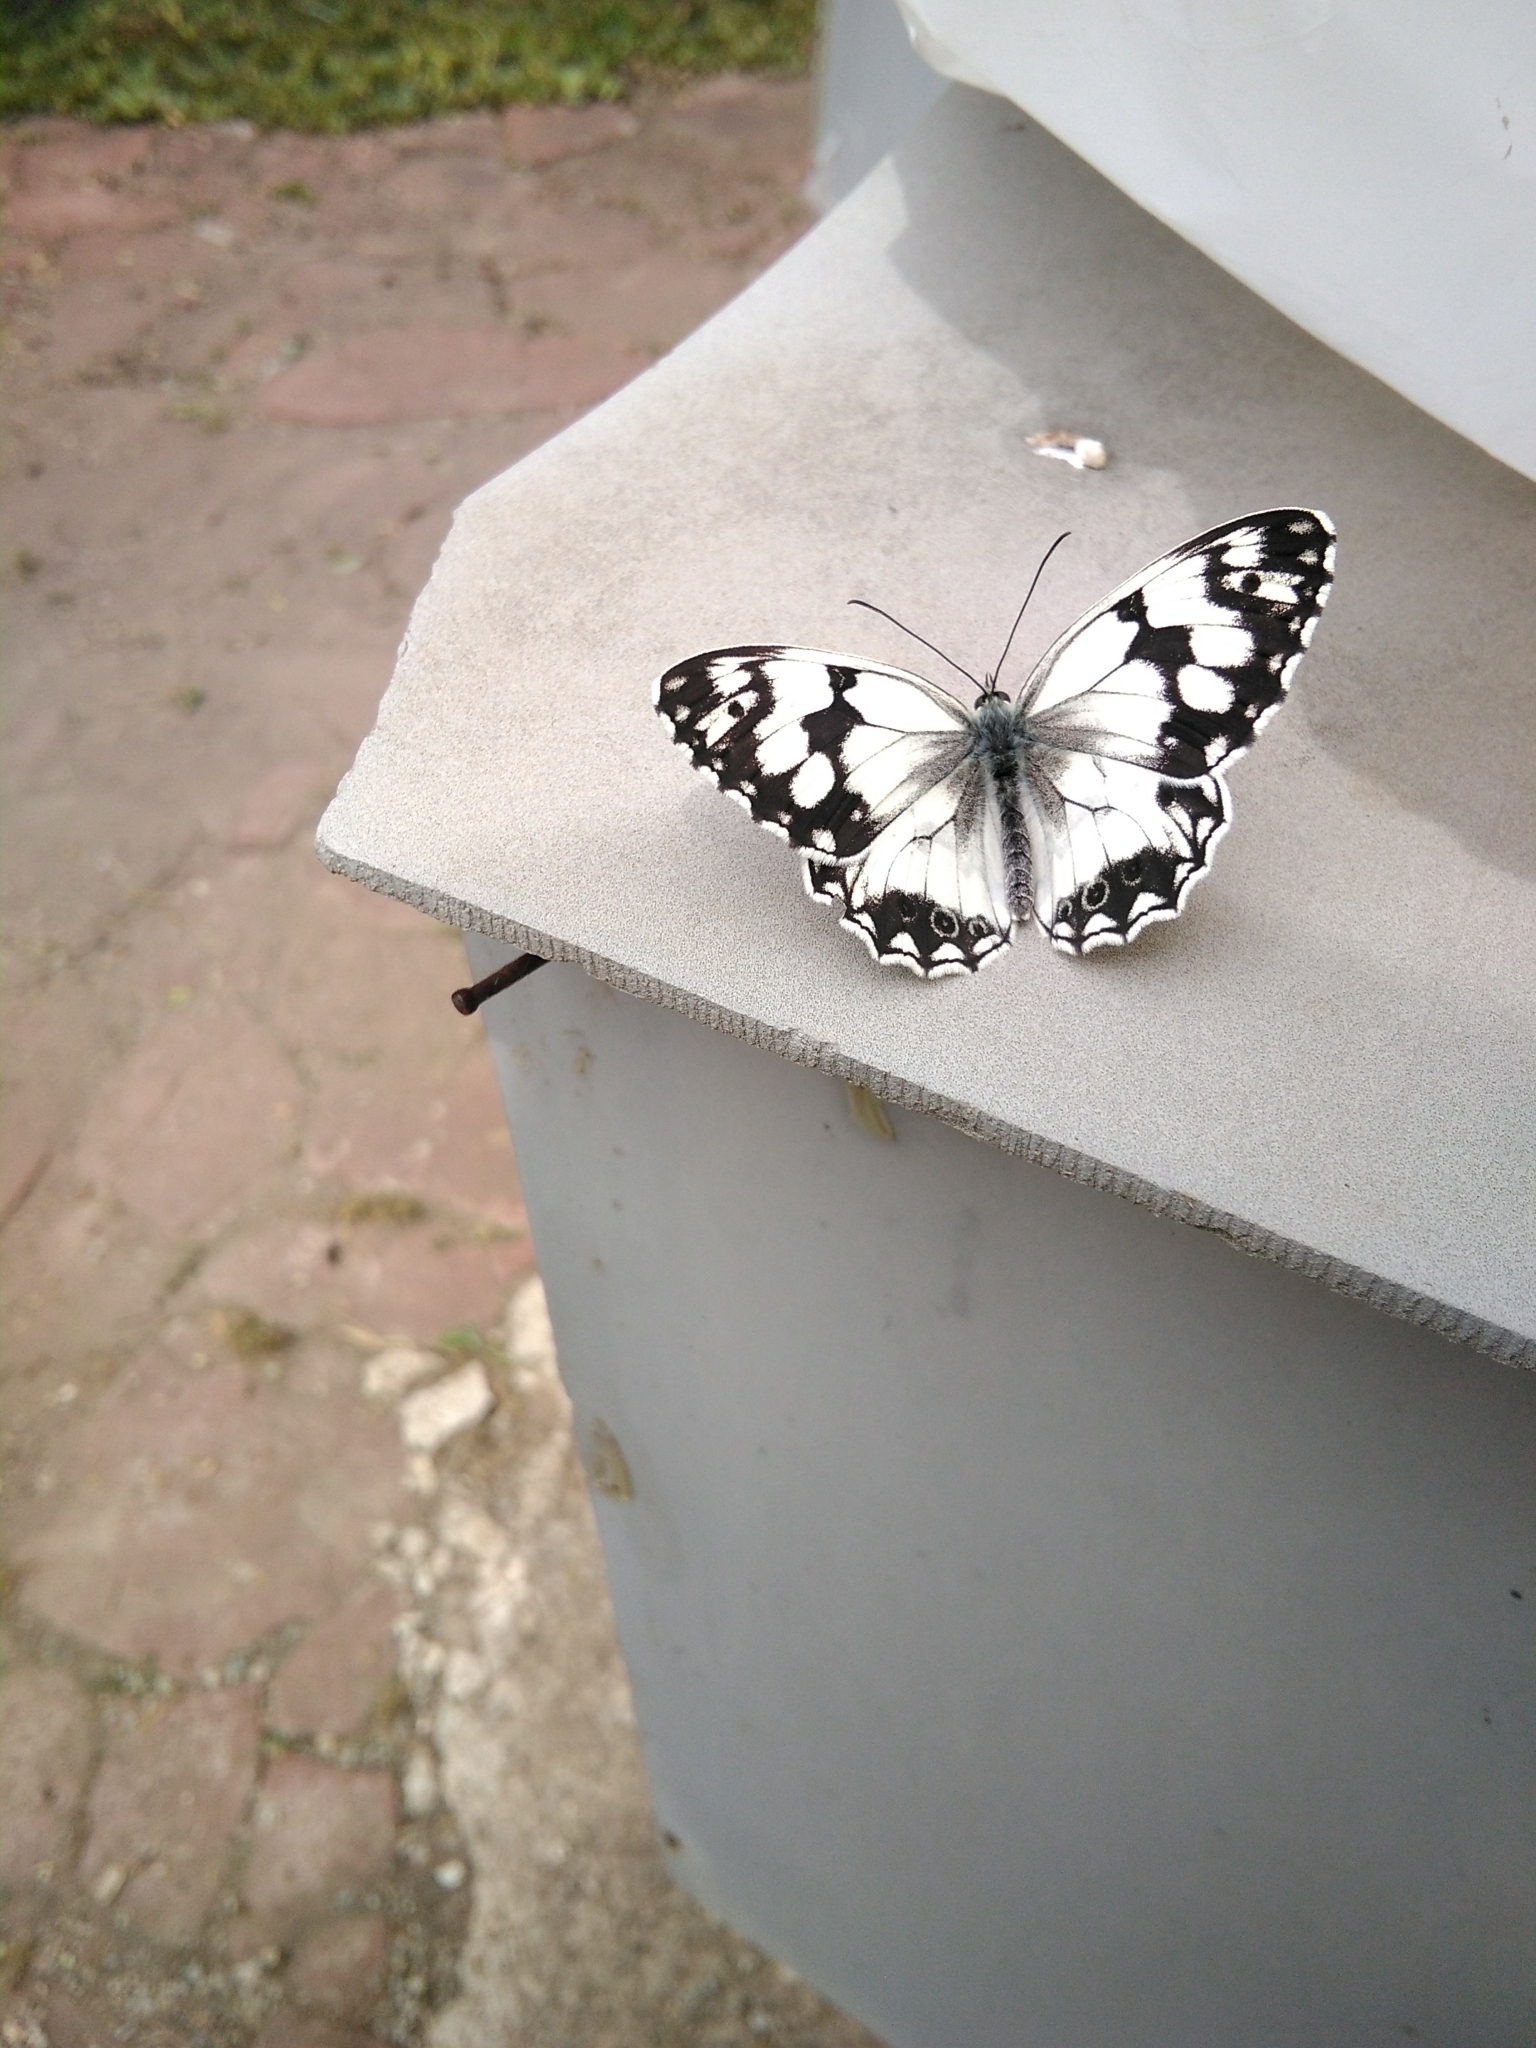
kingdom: Animalia
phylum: Arthropoda
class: Insecta
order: Lepidoptera
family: Nymphalidae
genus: Melanargia
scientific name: Melanargia lachesis
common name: Iberian marbled white
